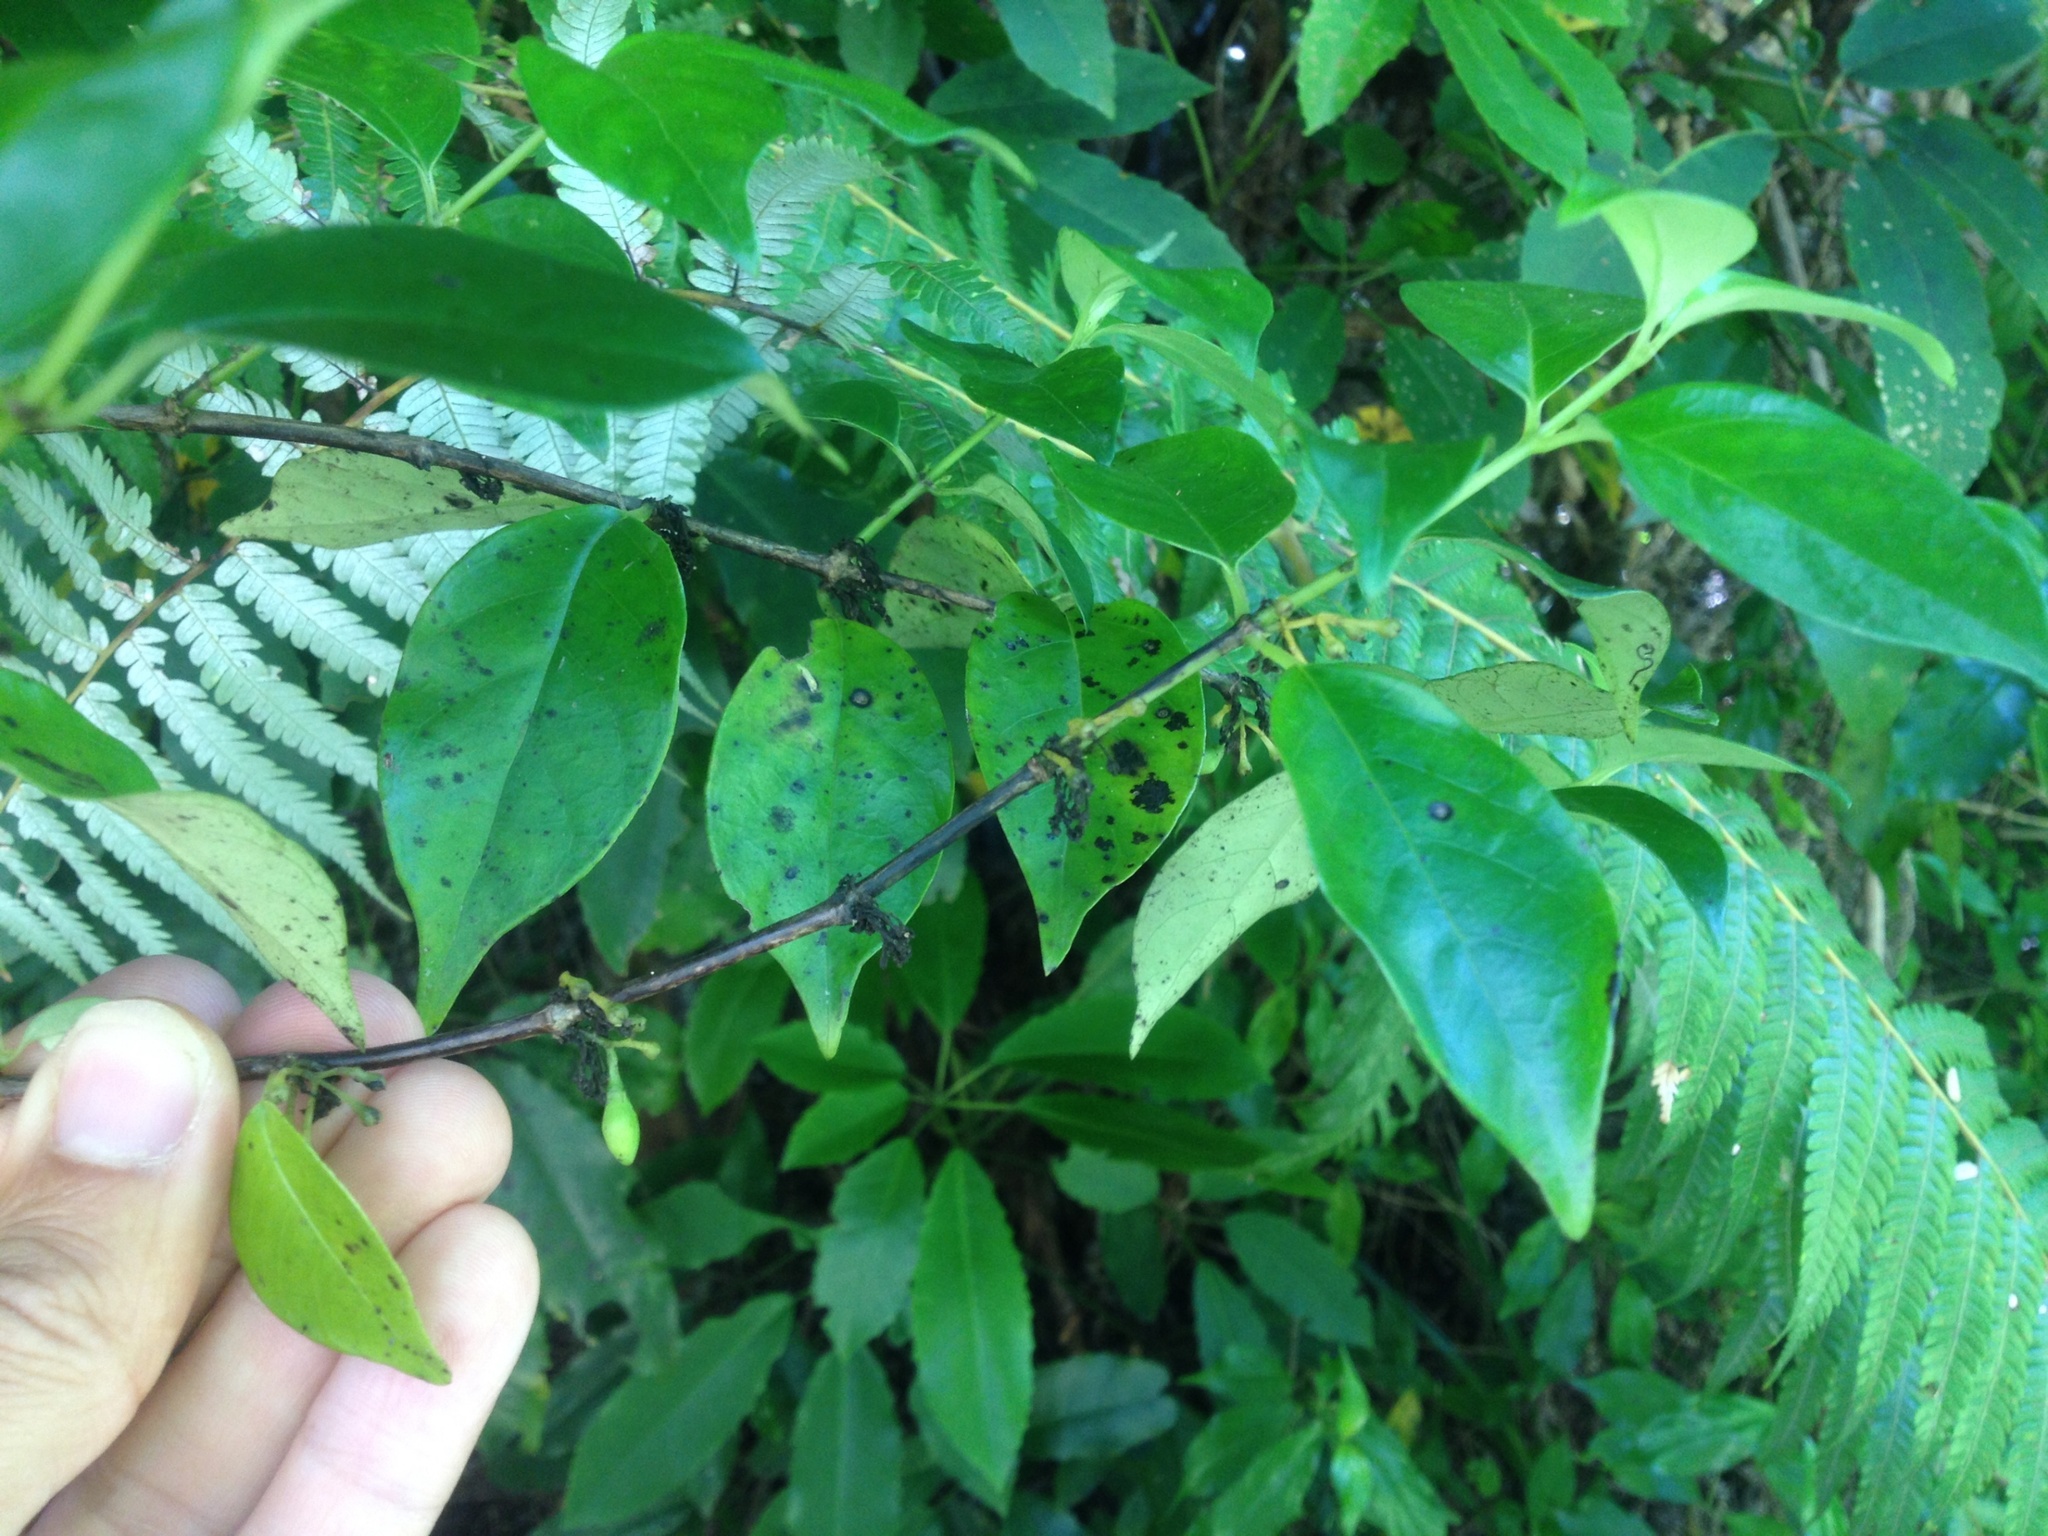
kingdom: Plantae
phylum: Tracheophyta
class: Magnoliopsida
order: Gentianales
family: Loganiaceae
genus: Geniostoma
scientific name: Geniostoma ligustrifolium
